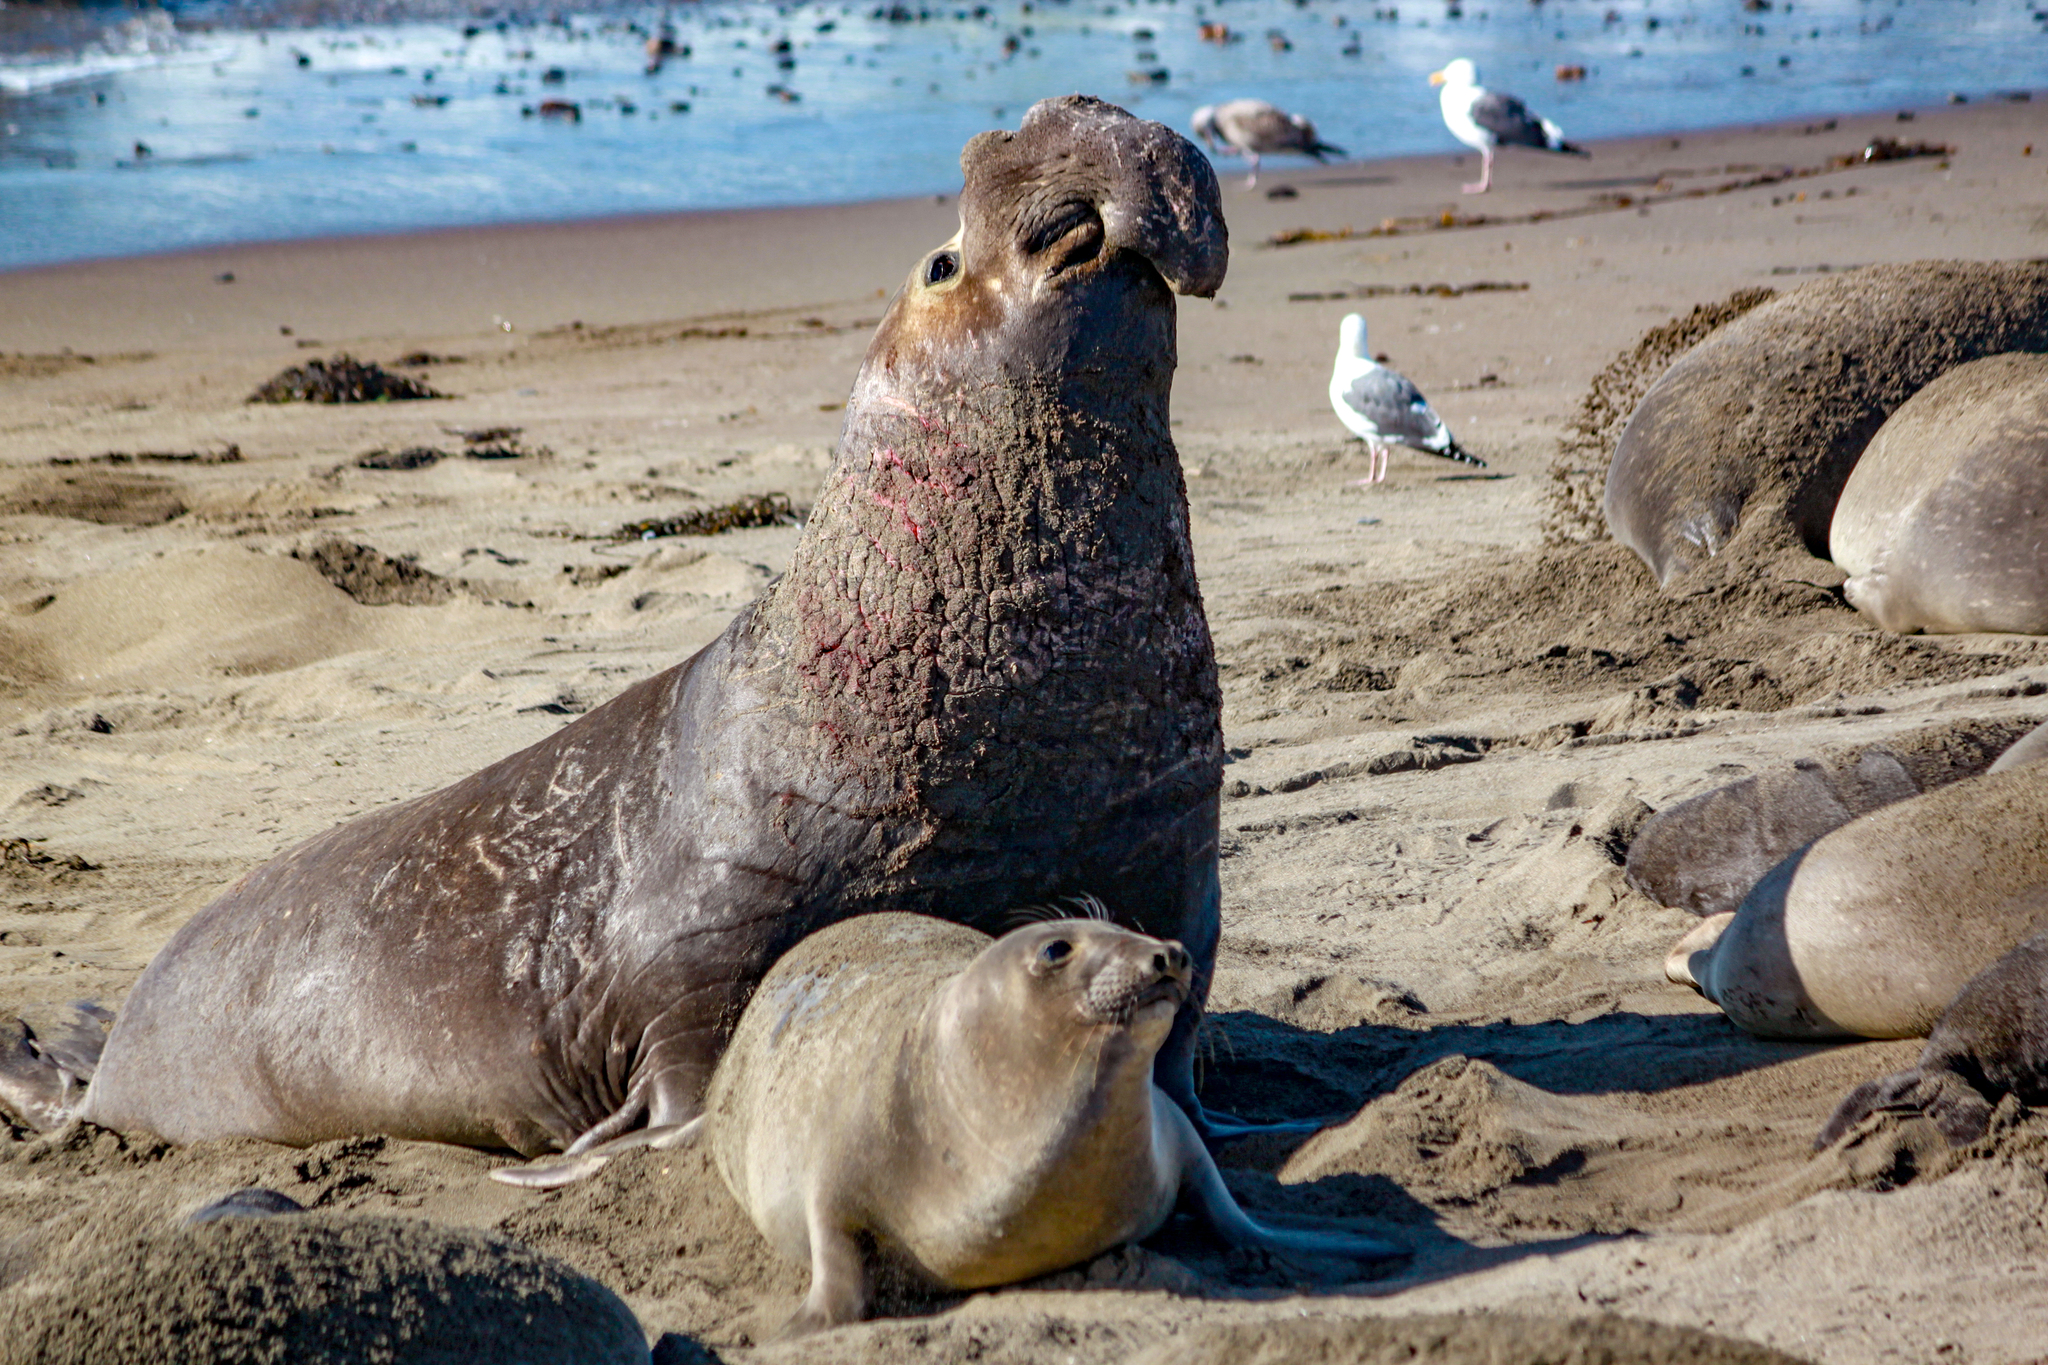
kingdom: Animalia
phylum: Chordata
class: Mammalia
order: Carnivora
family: Phocidae
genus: Mirounga
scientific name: Mirounga angustirostris
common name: Northern elephant seal
